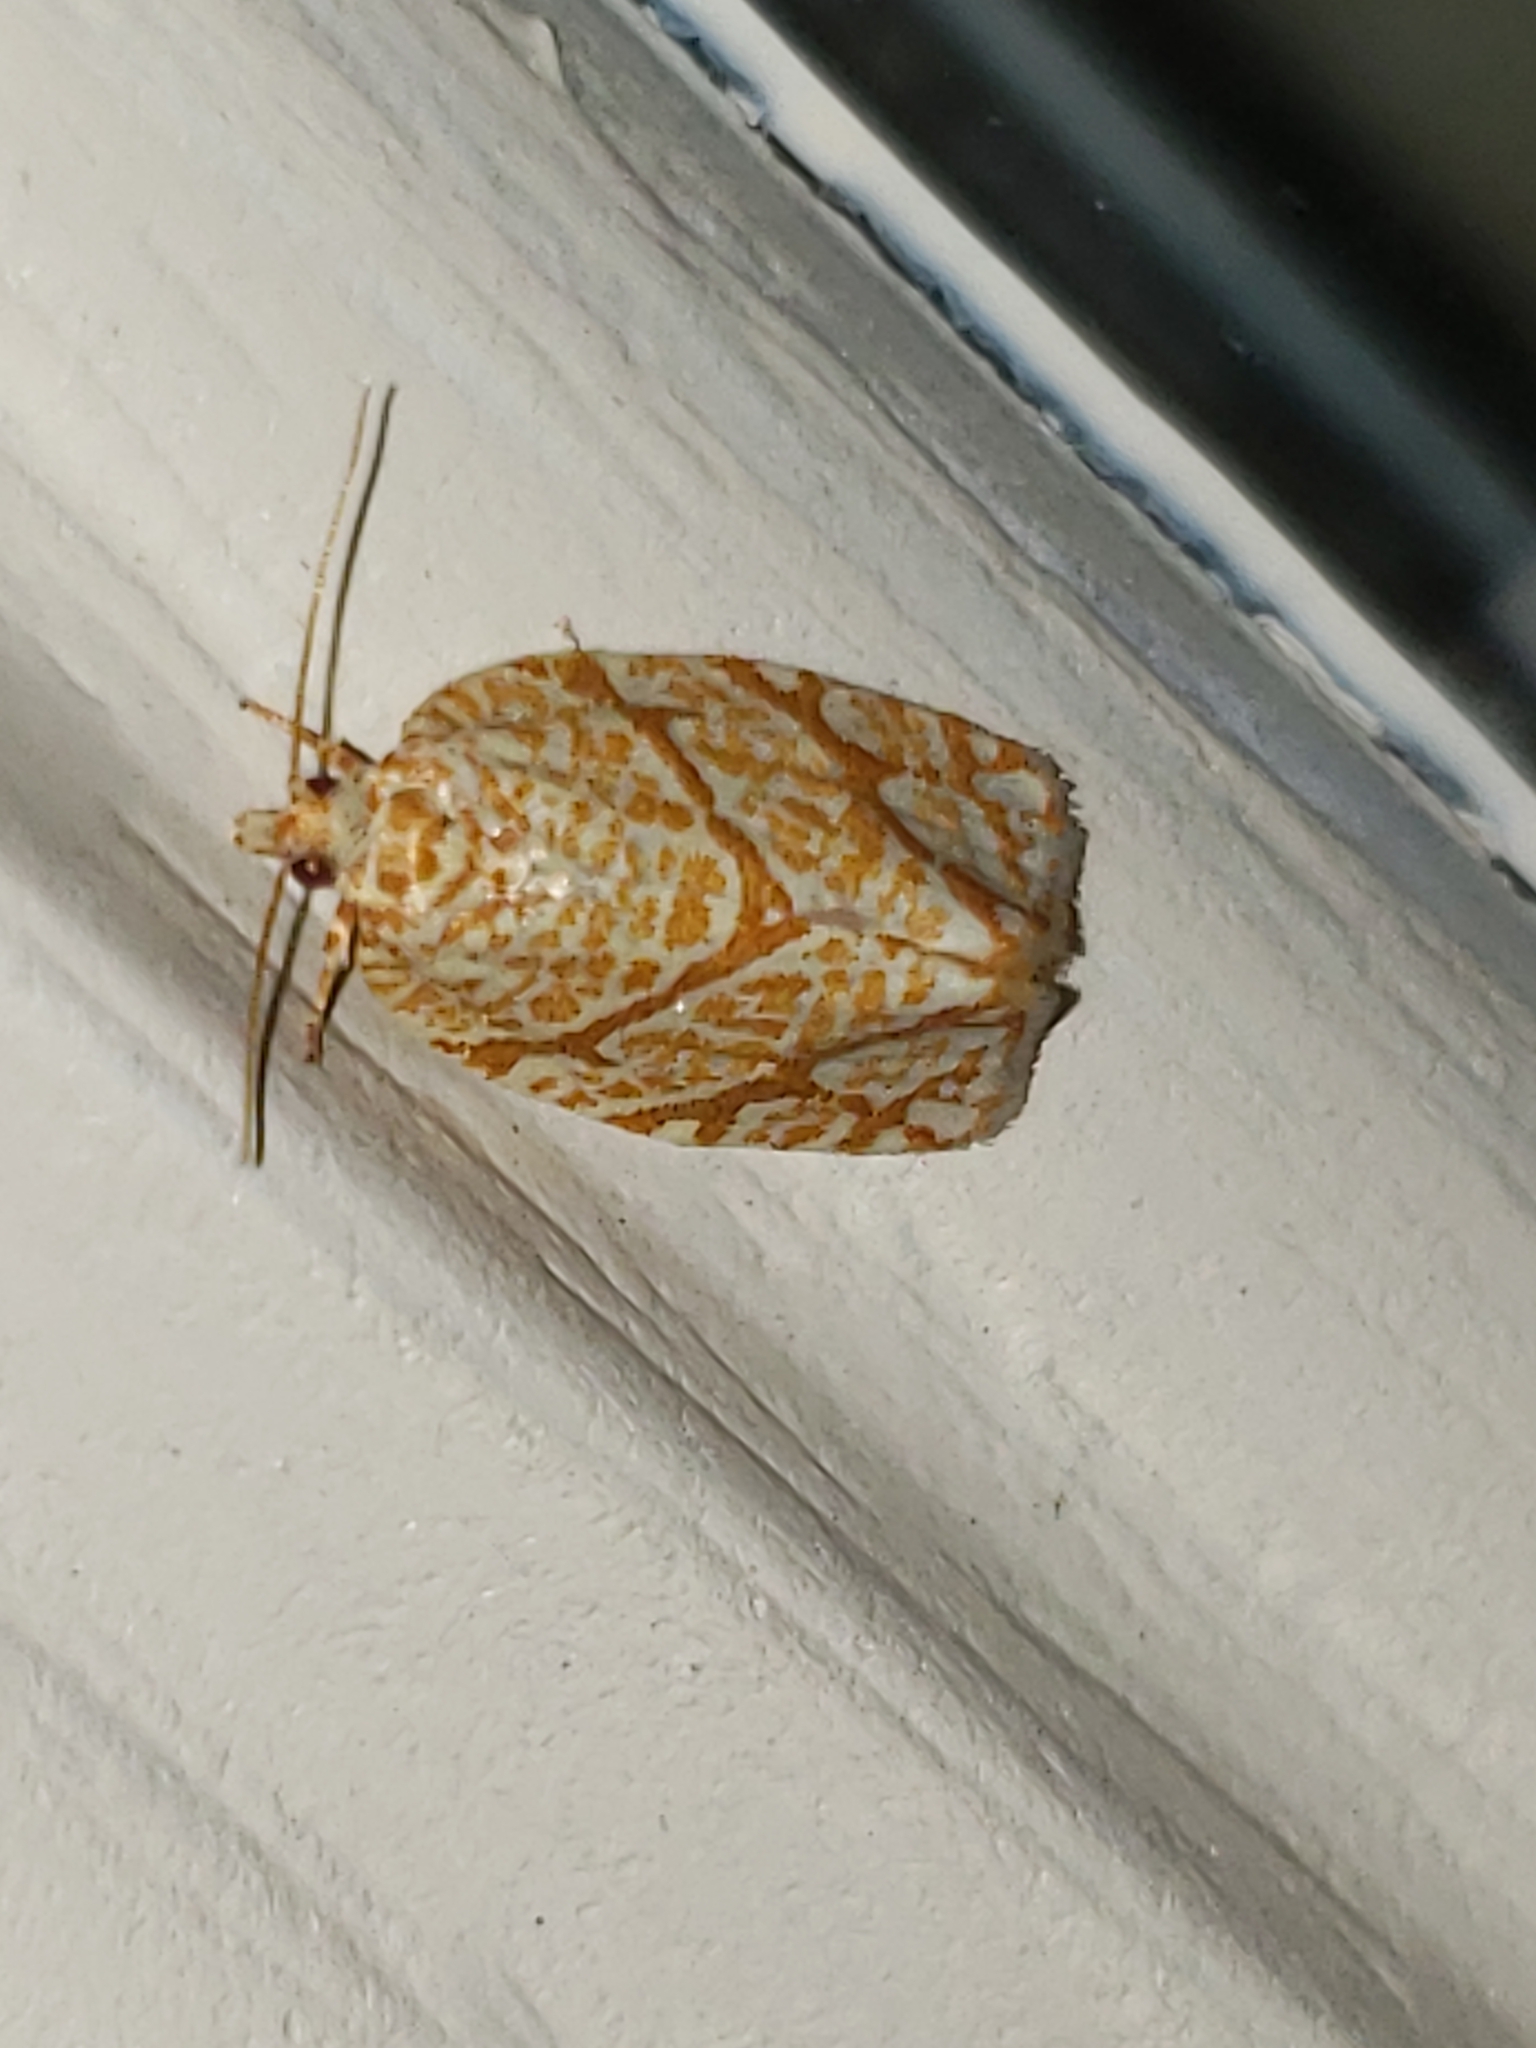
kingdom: Animalia
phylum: Arthropoda
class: Insecta
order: Lepidoptera
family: Tortricidae
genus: Argyrotaenia
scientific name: Argyrotaenia quercifoliana
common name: Yellow-winged oak leafroller moth
